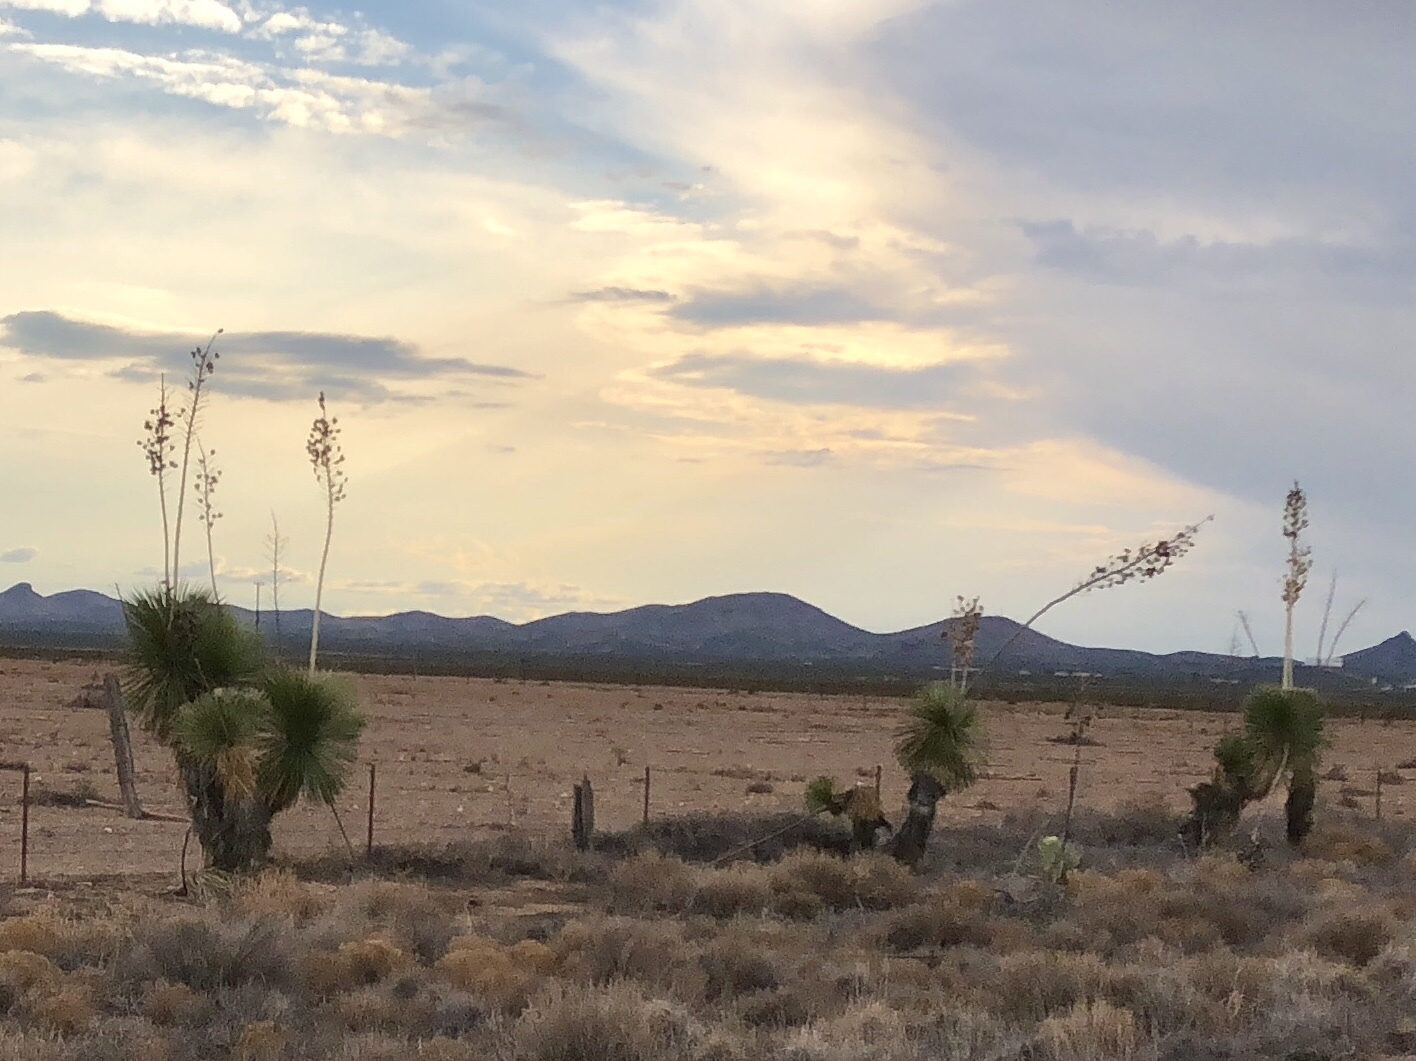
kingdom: Plantae
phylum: Tracheophyta
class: Liliopsida
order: Asparagales
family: Asparagaceae
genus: Yucca
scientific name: Yucca elata
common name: Palmella
